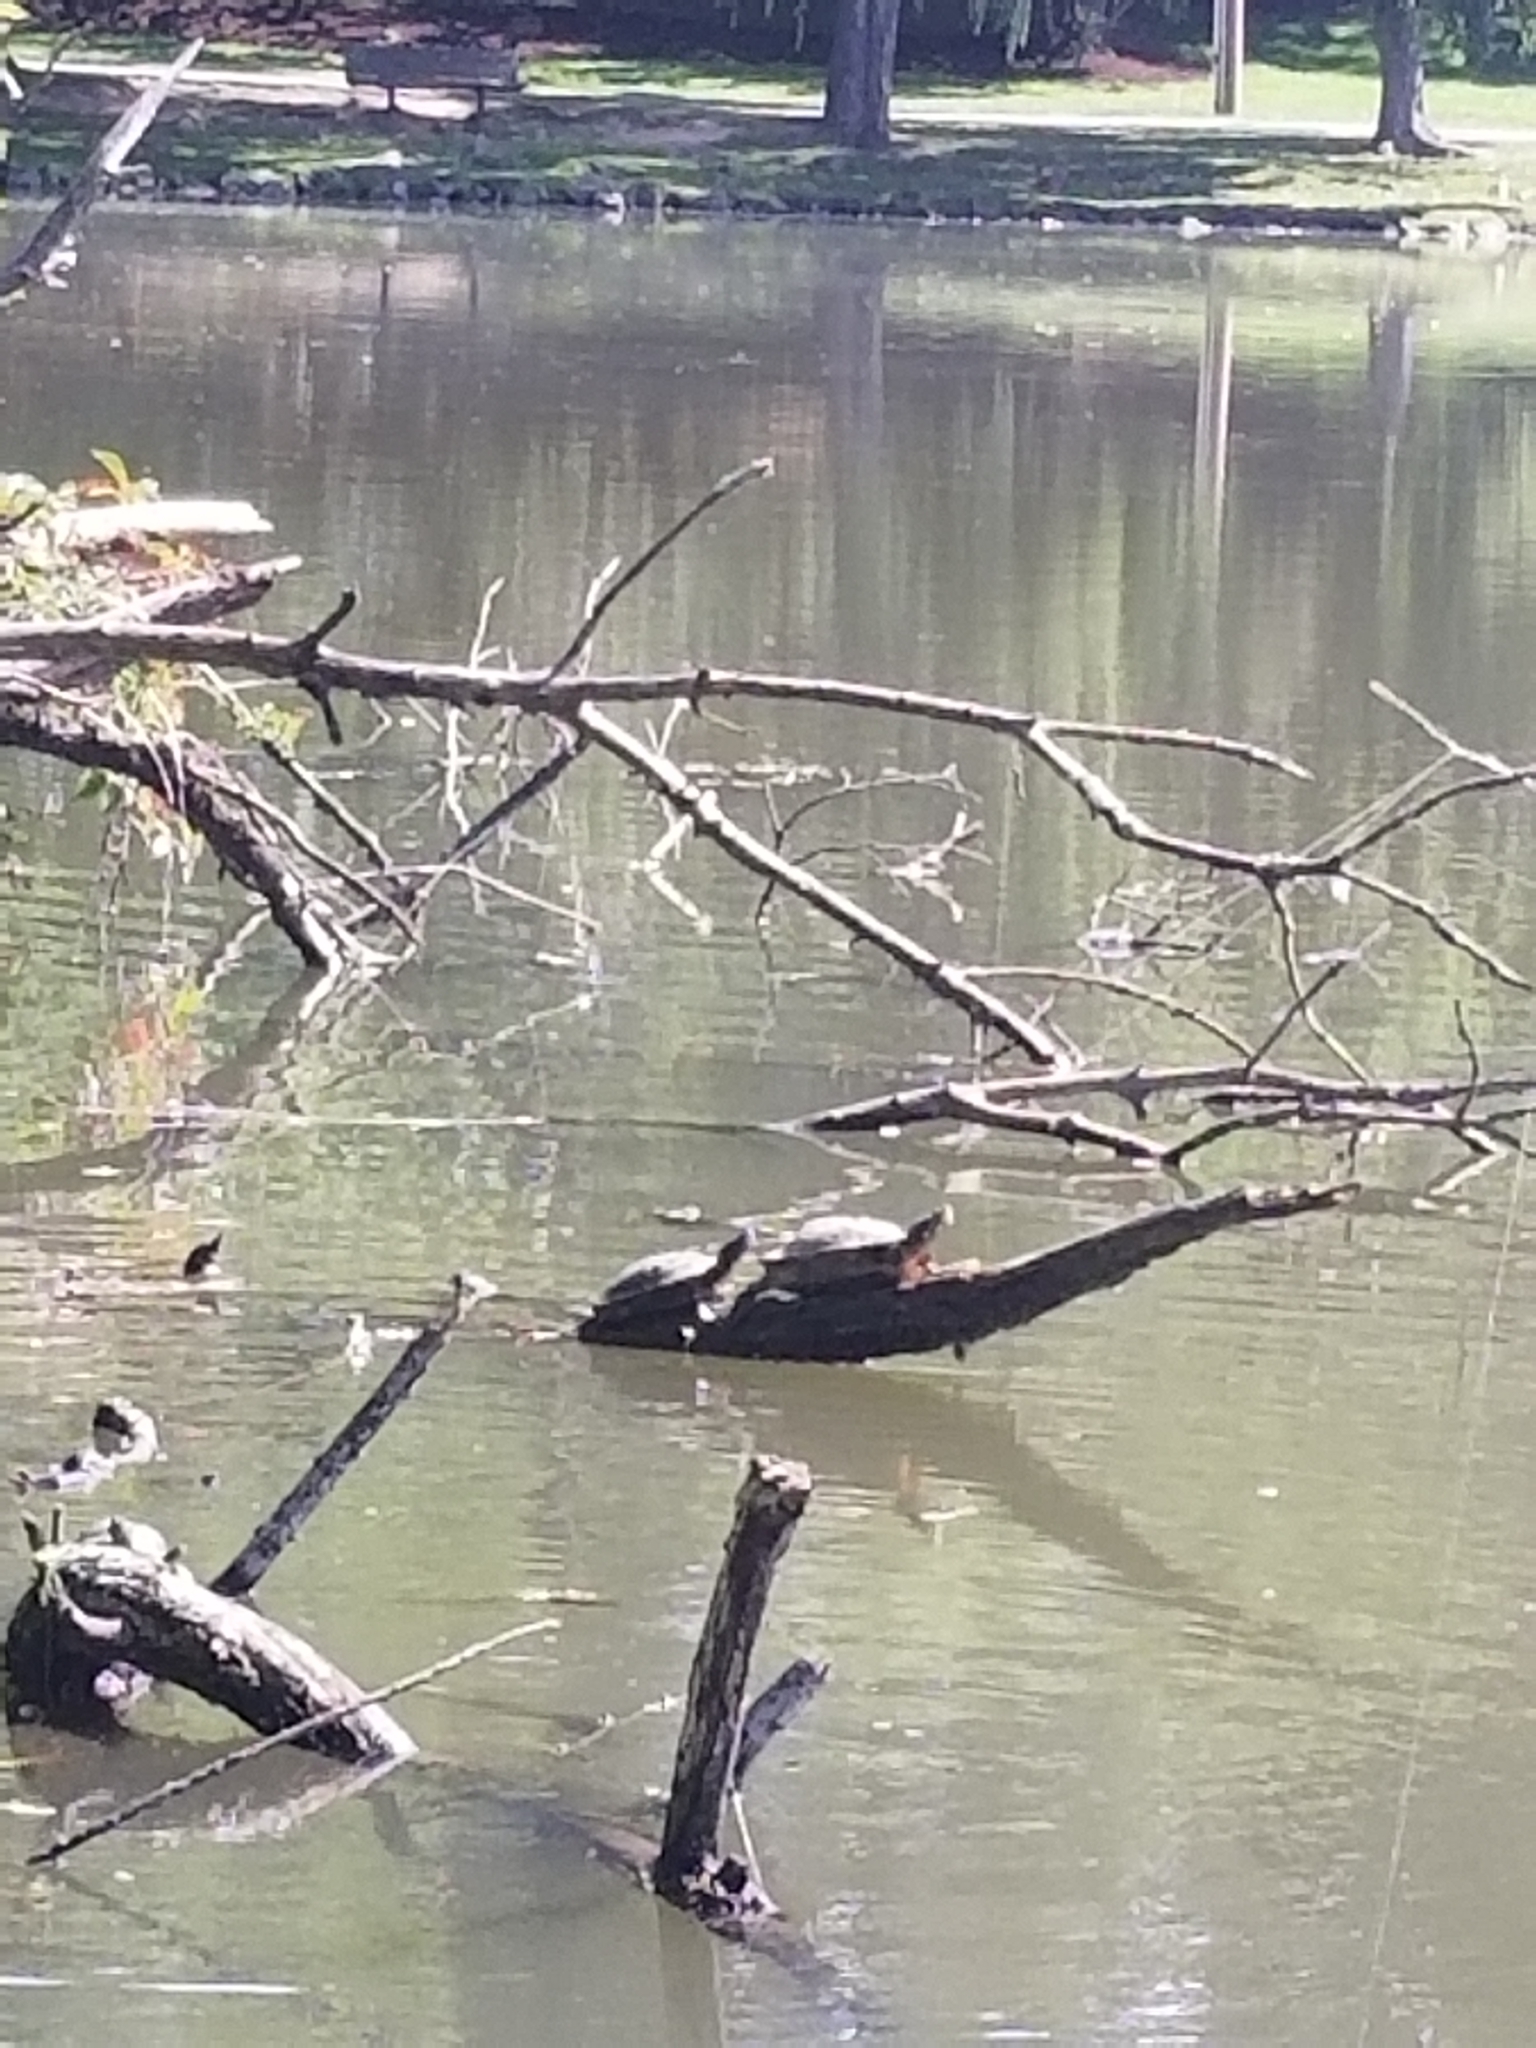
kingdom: Animalia
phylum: Chordata
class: Testudines
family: Emydidae
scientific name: Emydidae
